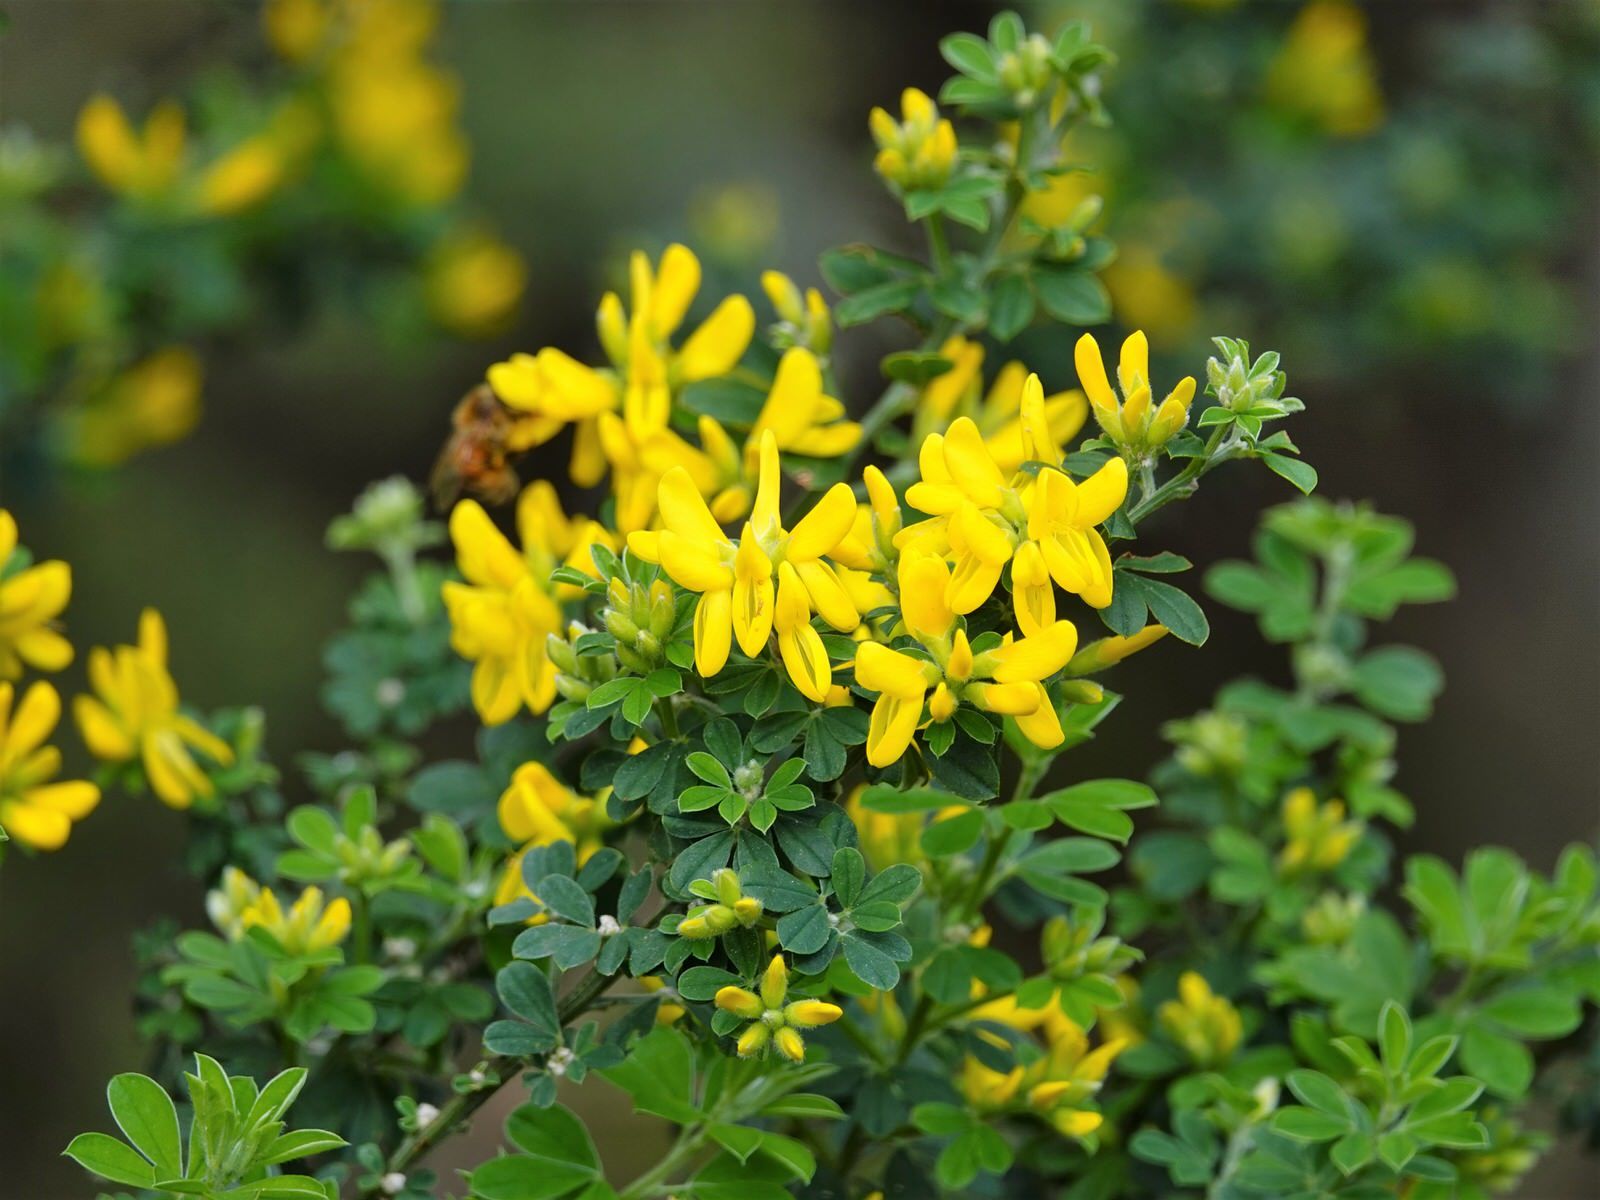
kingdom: Plantae
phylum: Tracheophyta
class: Magnoliopsida
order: Fabales
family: Fabaceae
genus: Genista
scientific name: Genista monspessulana
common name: Montpellier broom
